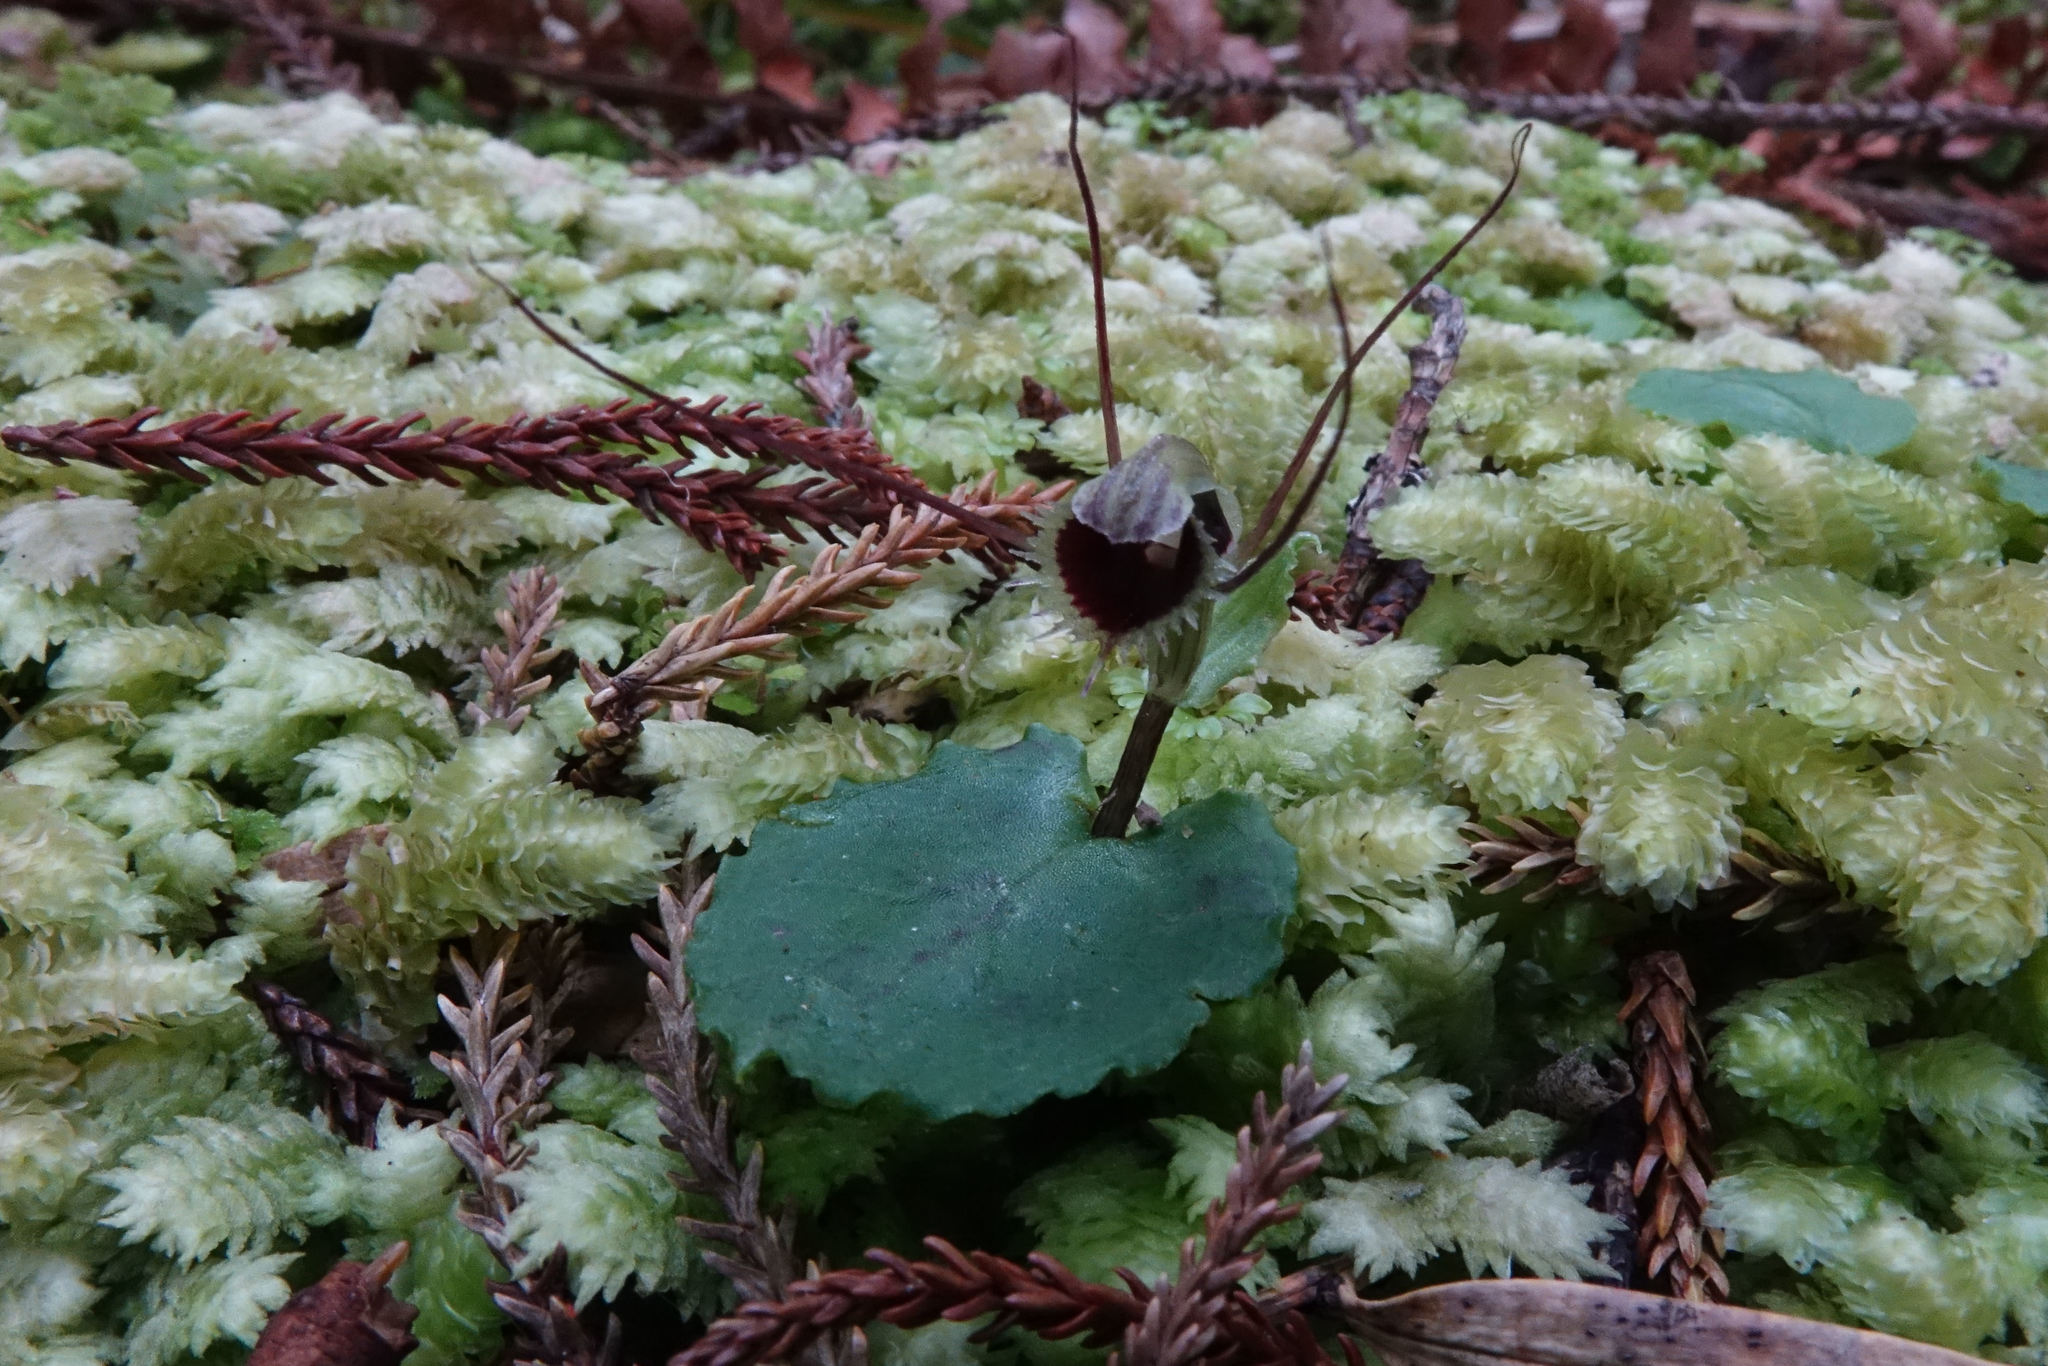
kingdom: Plantae
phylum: Tracheophyta
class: Liliopsida
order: Asparagales
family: Orchidaceae
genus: Corybas
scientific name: Corybas oblongus
